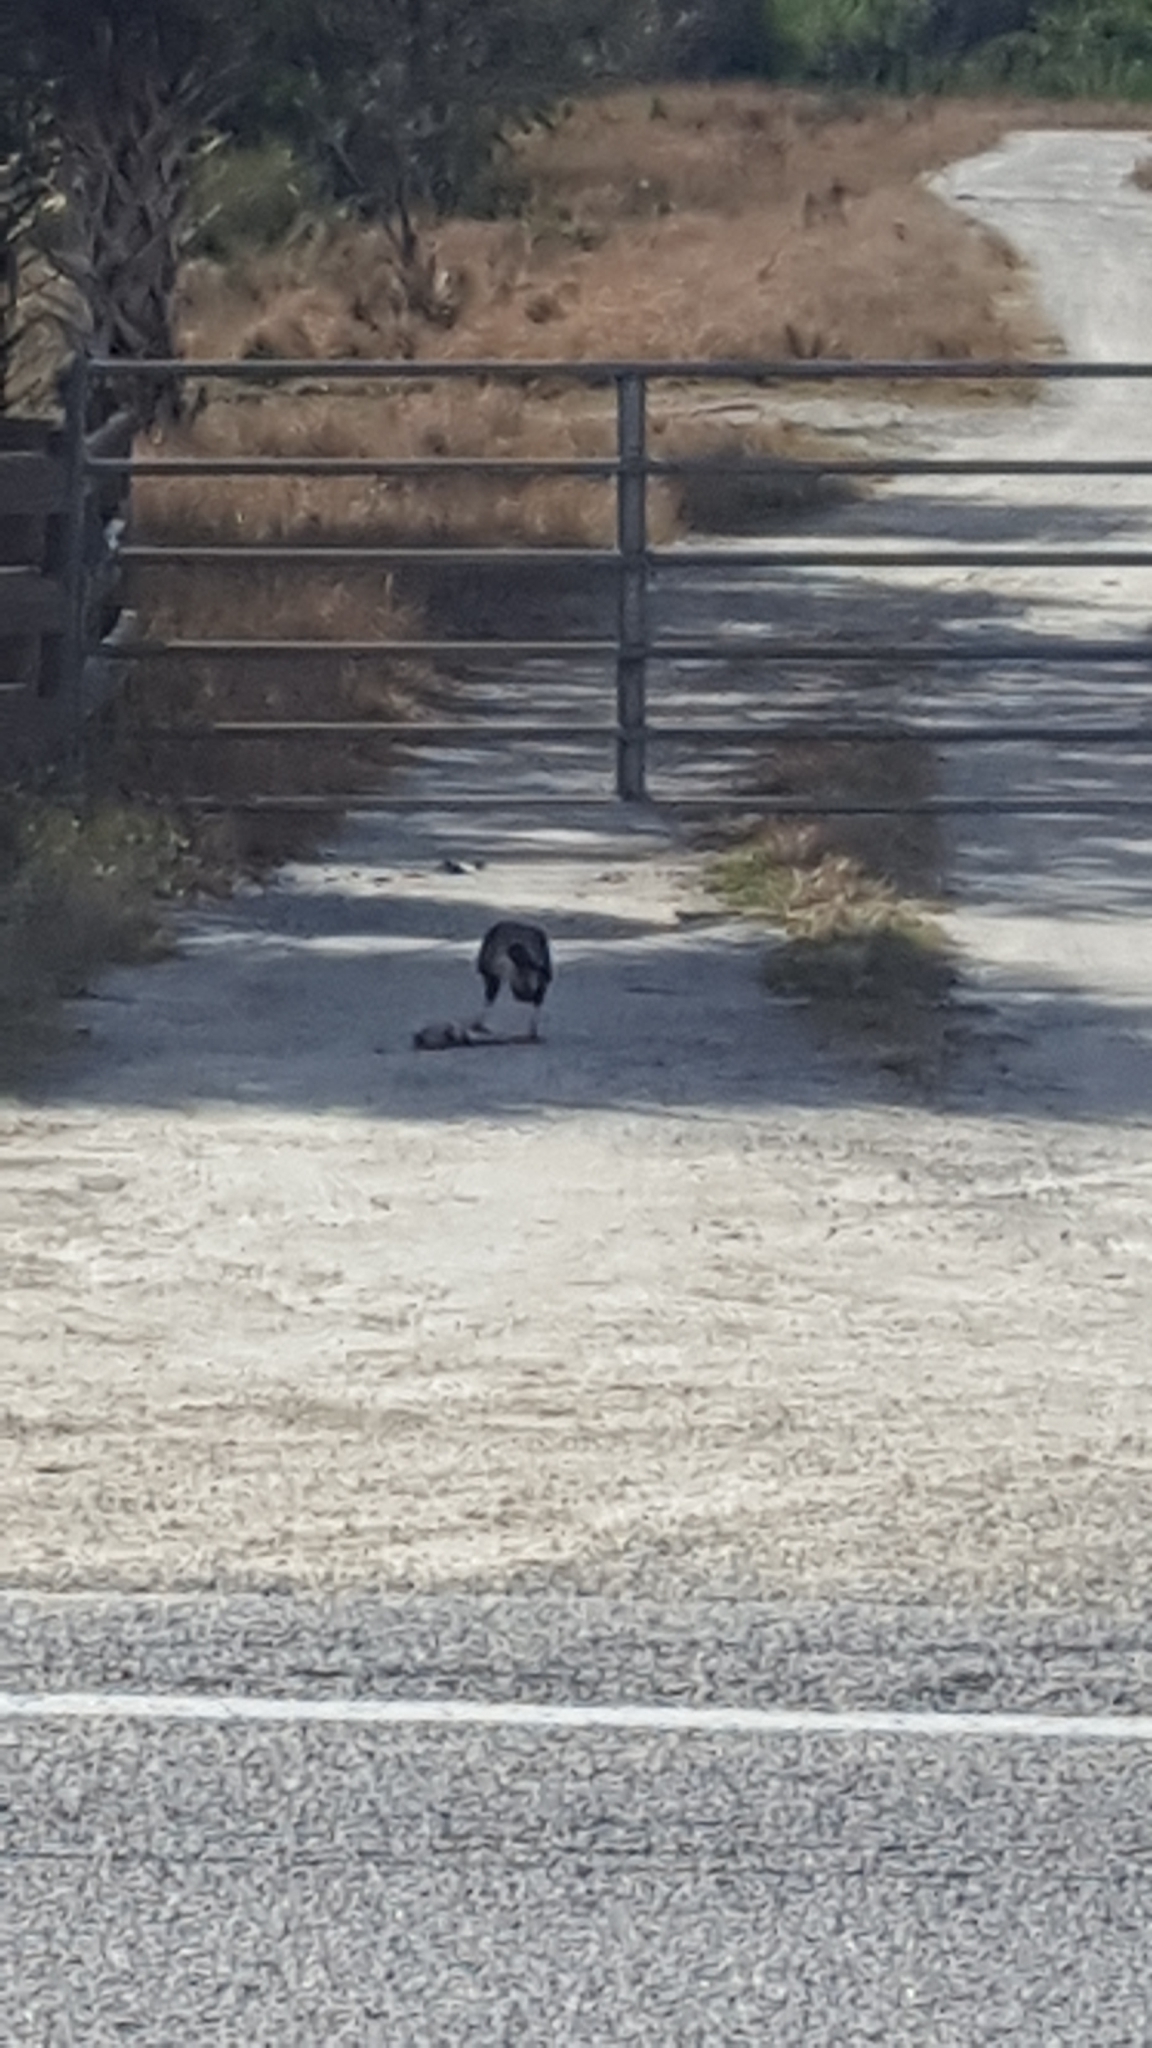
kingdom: Animalia
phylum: Chordata
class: Aves
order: Falconiformes
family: Falconidae
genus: Caracara
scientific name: Caracara plancus
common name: Southern caracara
